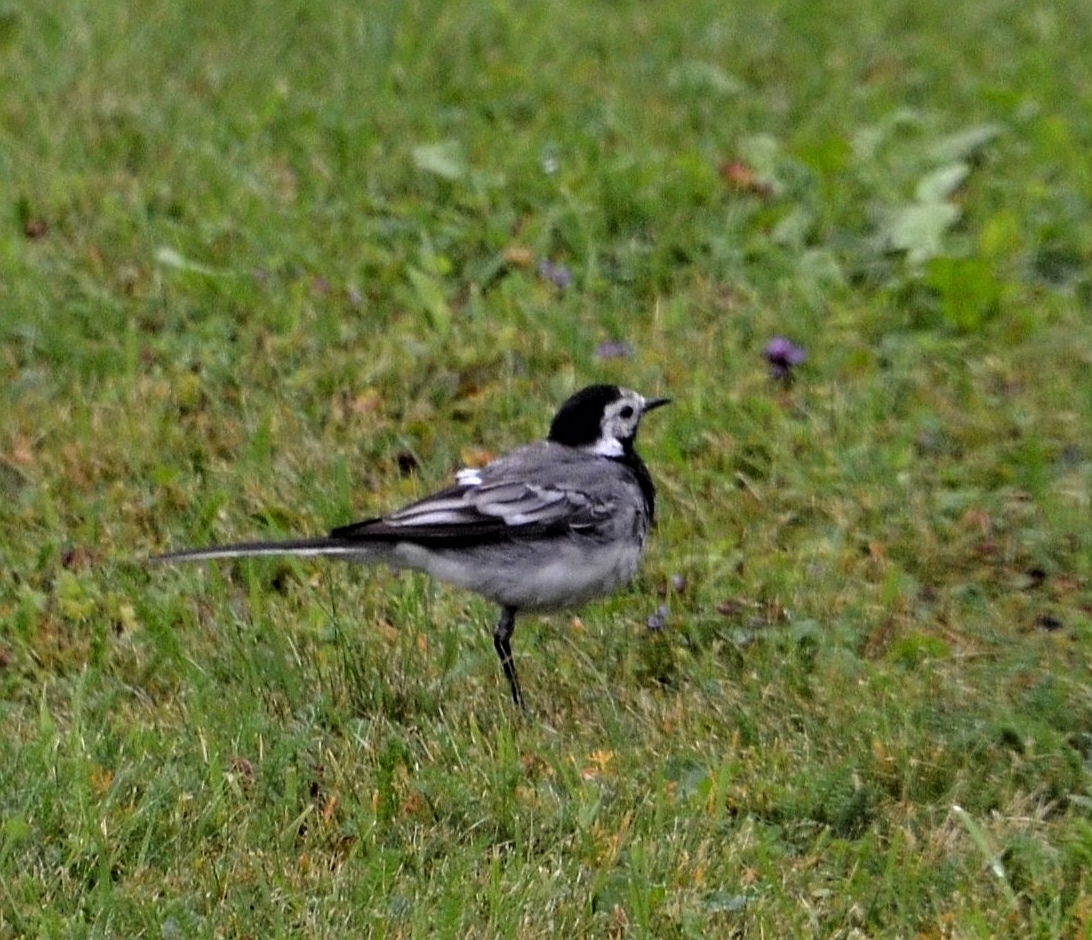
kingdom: Animalia
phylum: Chordata
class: Aves
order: Passeriformes
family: Motacillidae
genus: Motacilla
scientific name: Motacilla alba
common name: White wagtail
